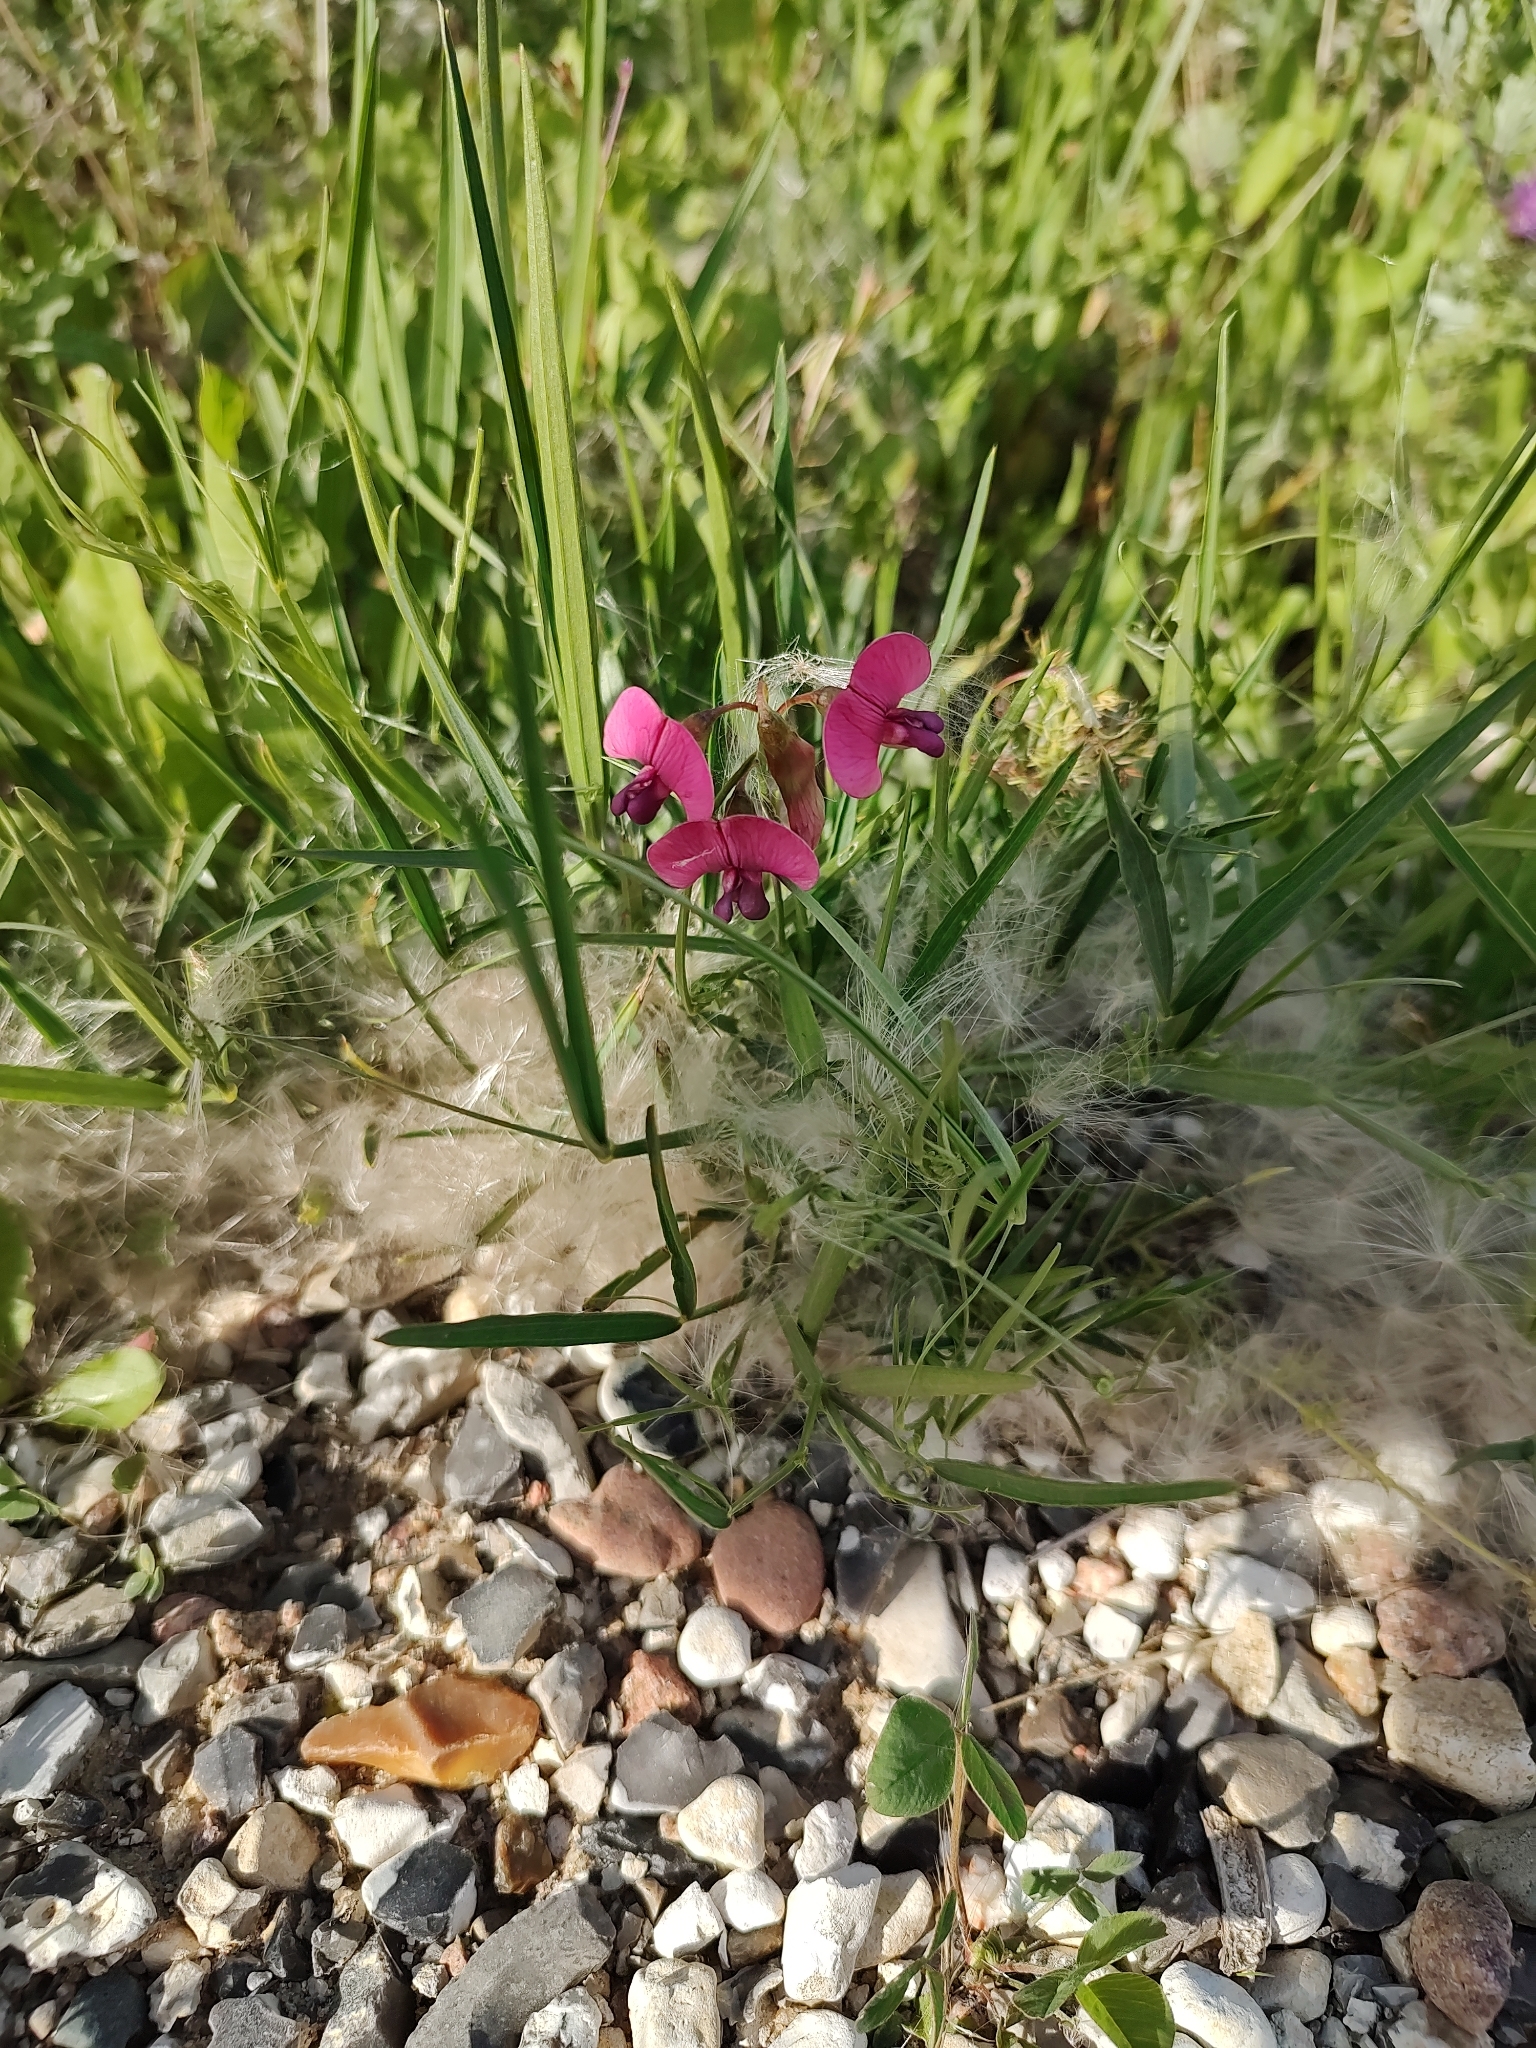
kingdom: Plantae
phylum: Tracheophyta
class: Magnoliopsida
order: Fabales
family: Fabaceae
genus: Lathyrus
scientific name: Lathyrus sylvestris
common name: Flat pea
